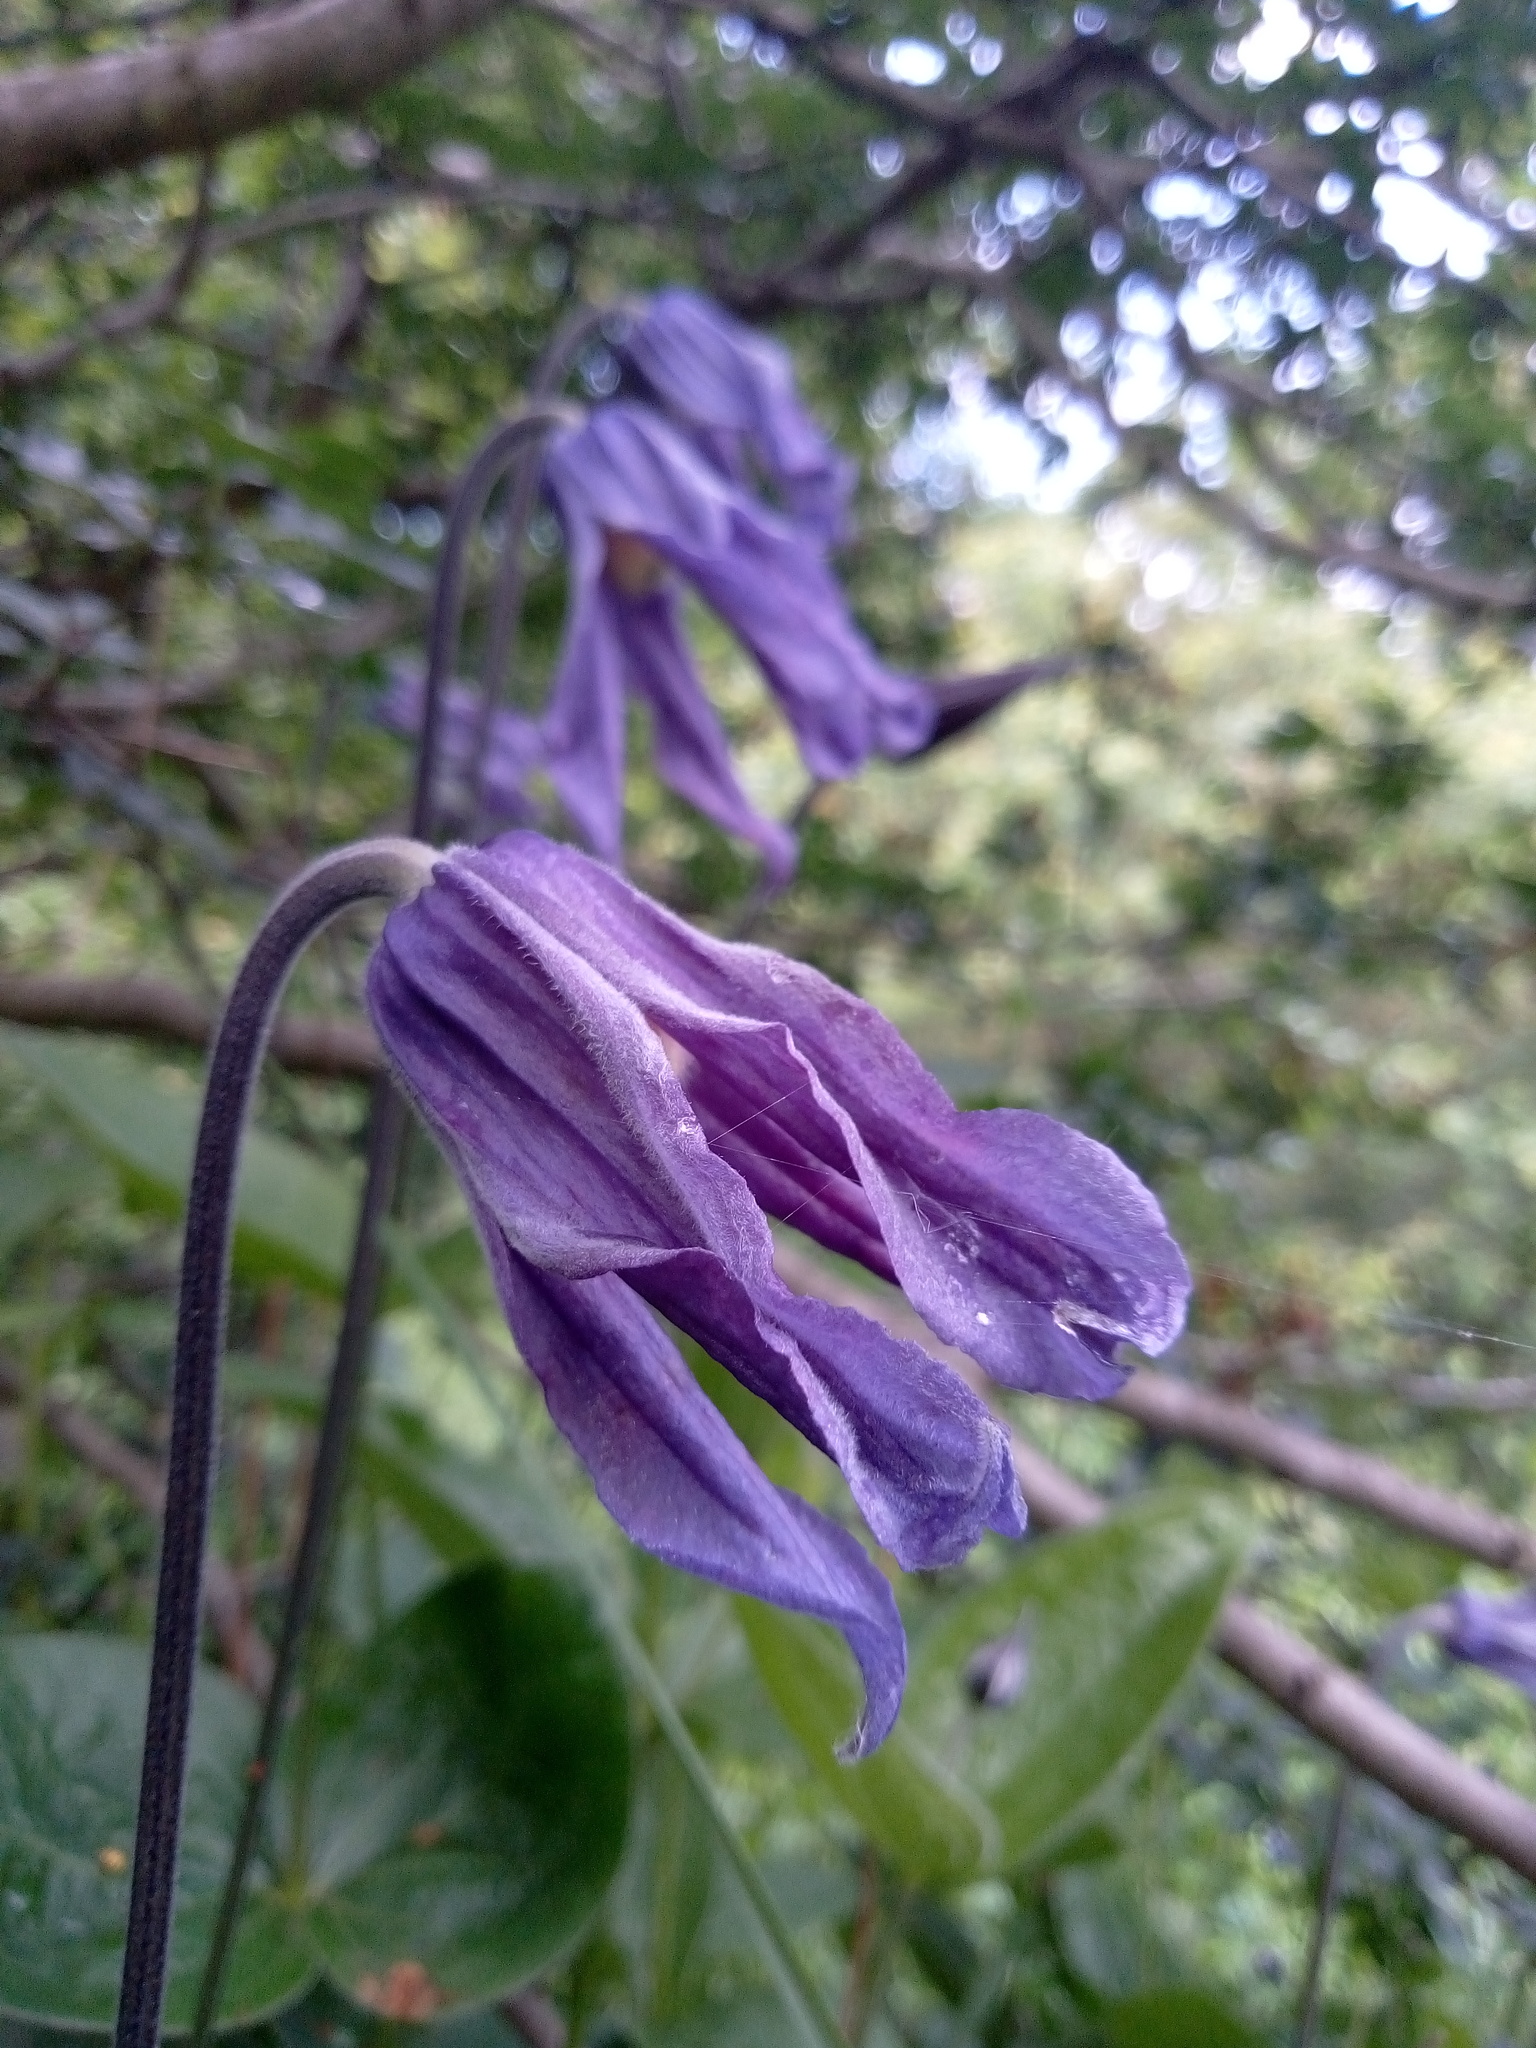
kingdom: Plantae
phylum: Tracheophyta
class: Magnoliopsida
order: Ranunculales
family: Ranunculaceae
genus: Clematis
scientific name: Clematis integrifolia
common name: Solitary clematis
